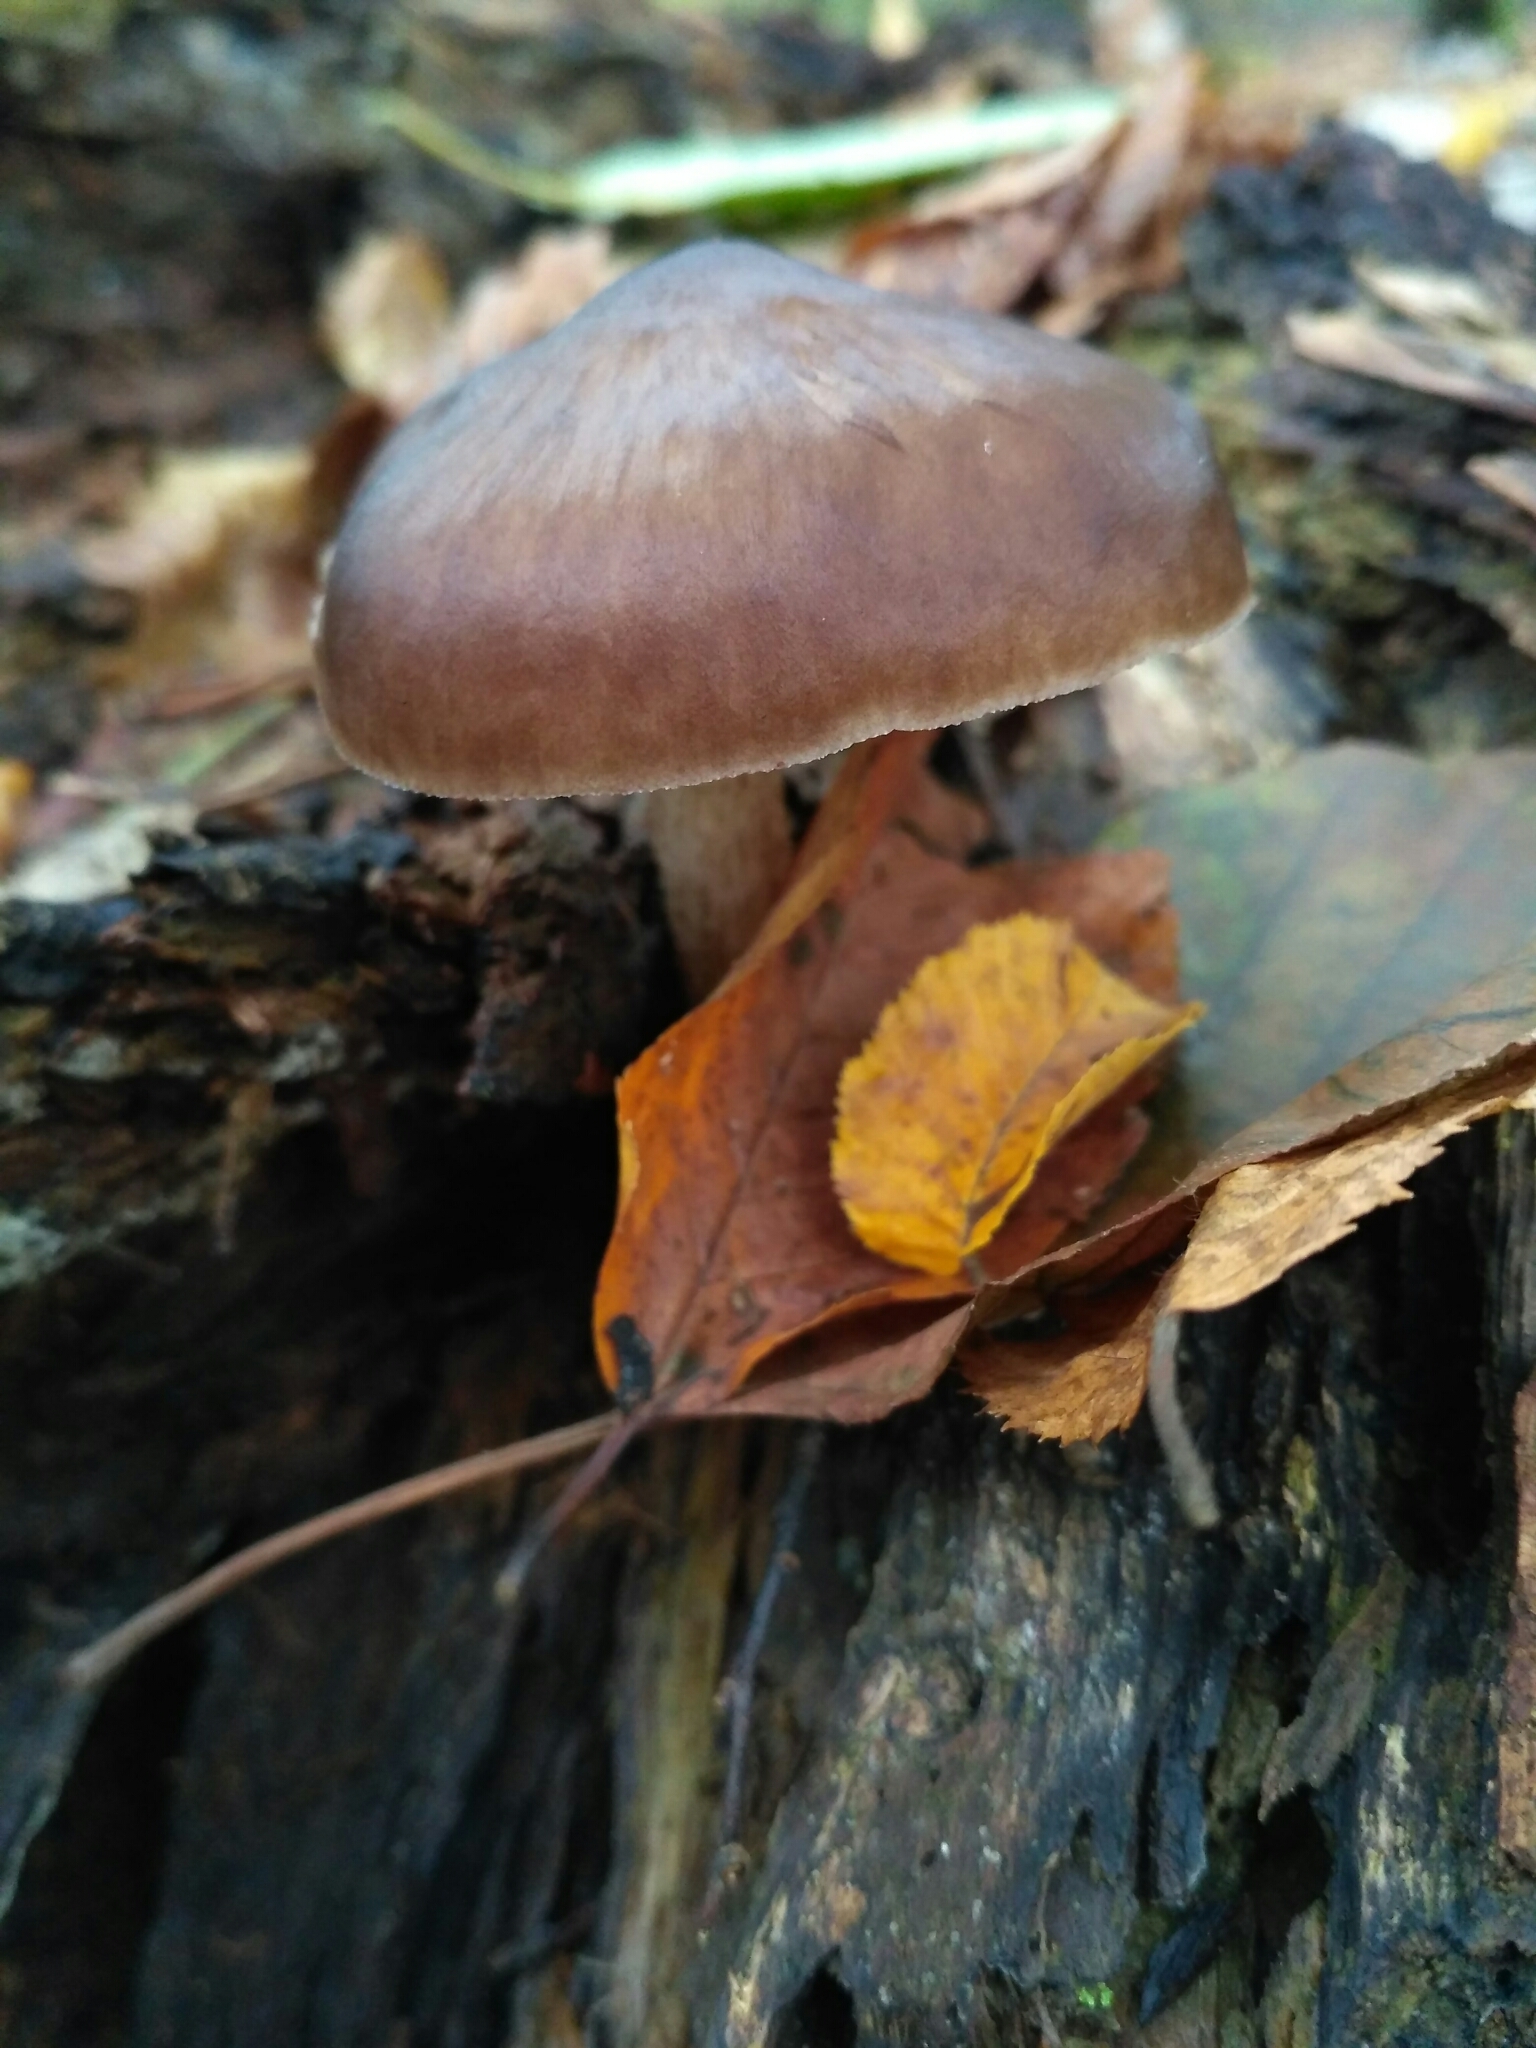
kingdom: Fungi
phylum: Basidiomycota
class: Agaricomycetes
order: Agaricales
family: Pluteaceae
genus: Pluteus
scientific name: Pluteus cervinus
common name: Deer shield
